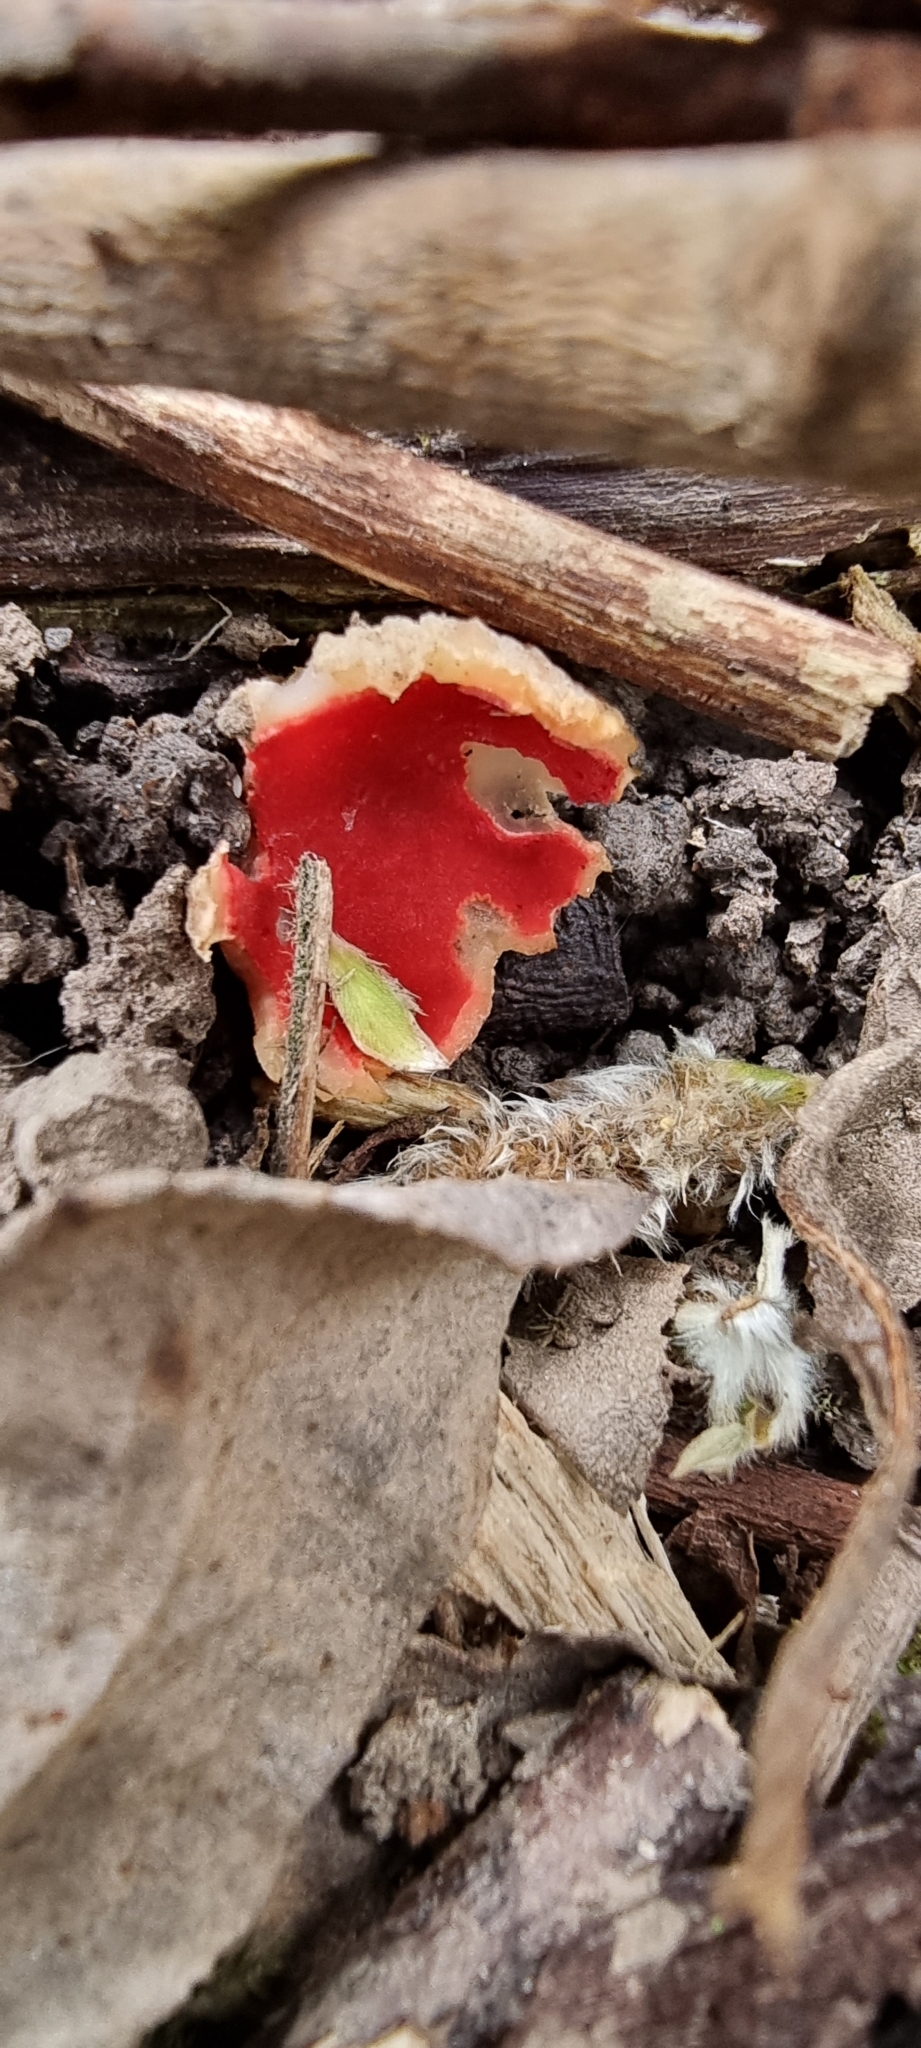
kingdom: Fungi
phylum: Ascomycota
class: Pezizomycetes
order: Pezizales
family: Sarcoscyphaceae
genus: Sarcoscypha
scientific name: Sarcoscypha
